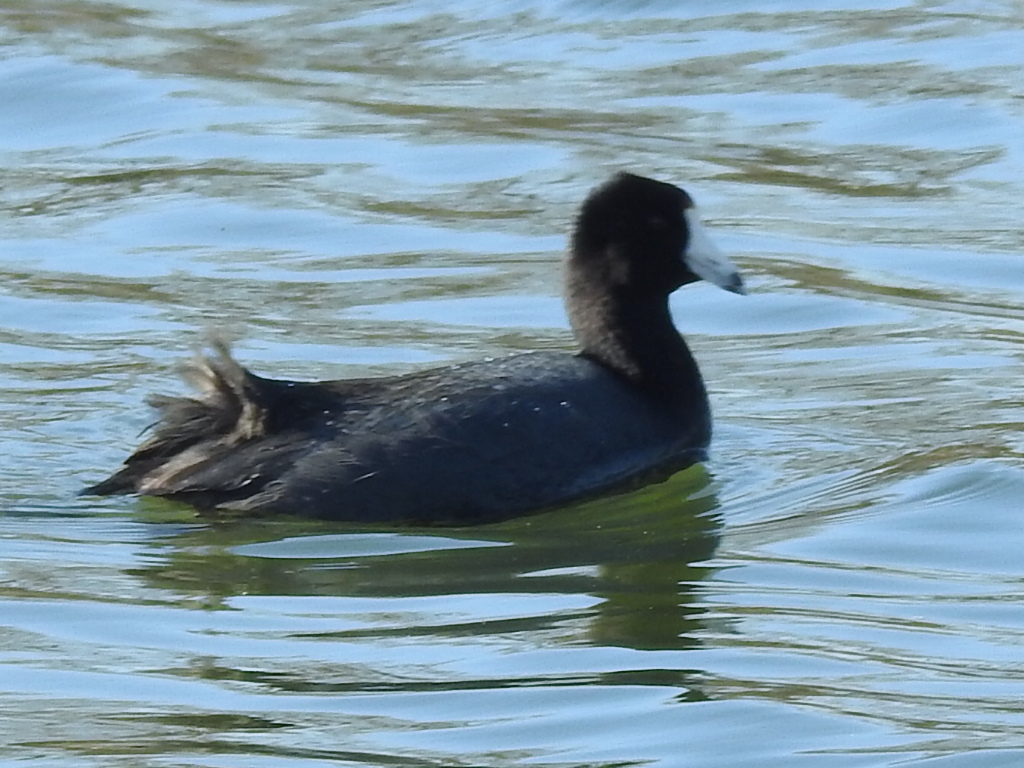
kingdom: Animalia
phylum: Chordata
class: Aves
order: Gruiformes
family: Rallidae
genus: Fulica
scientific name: Fulica americana
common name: American coot
